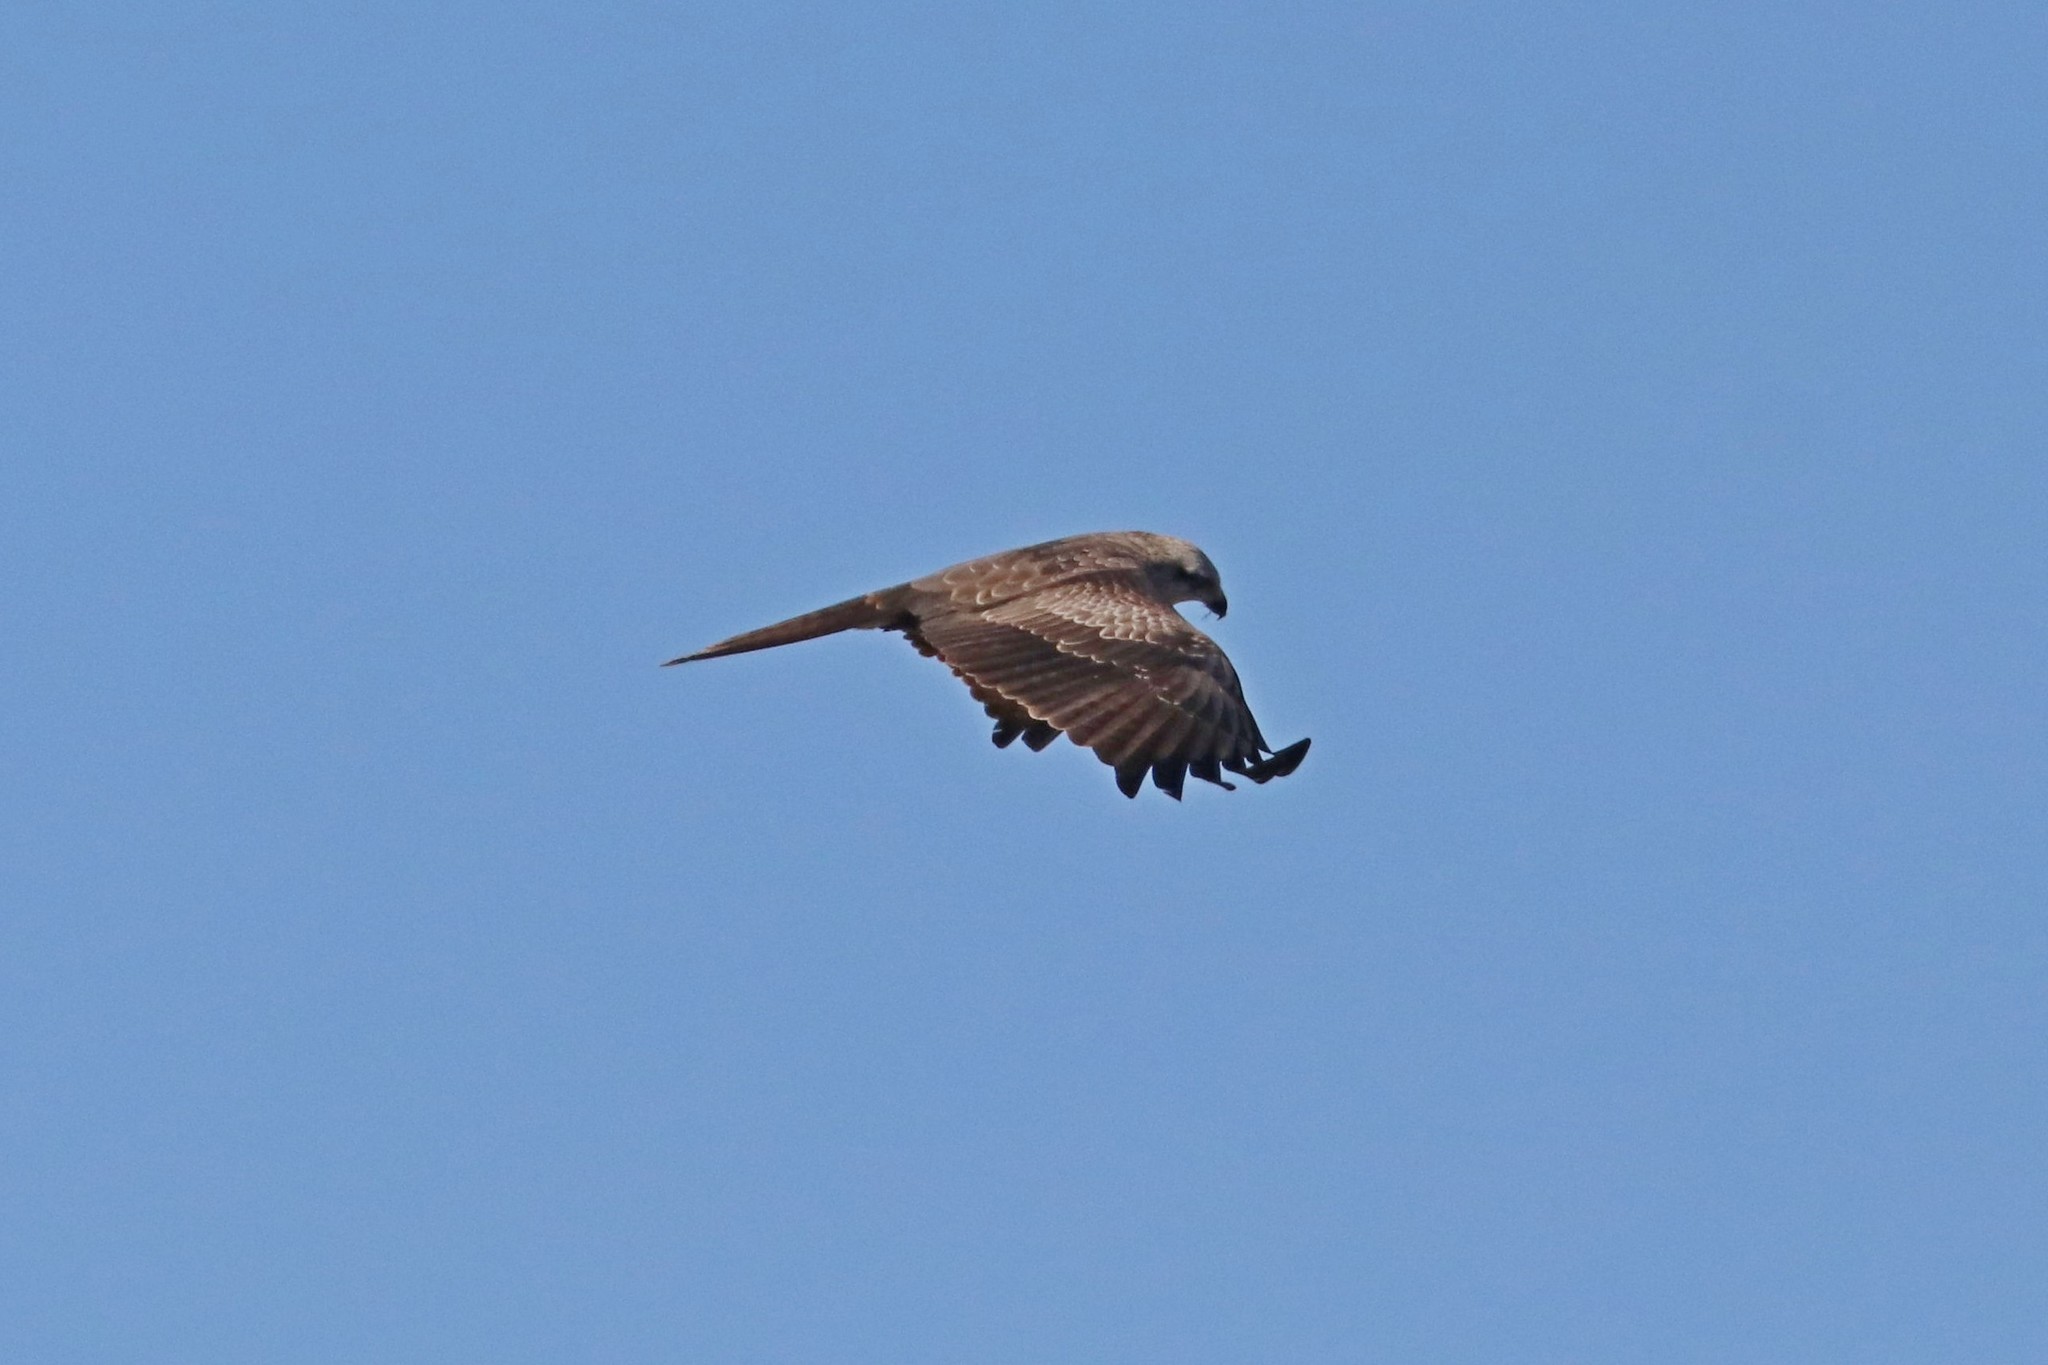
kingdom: Animalia
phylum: Chordata
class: Aves
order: Accipitriformes
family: Accipitridae
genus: Milvus
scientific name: Milvus migrans
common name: Black kite
